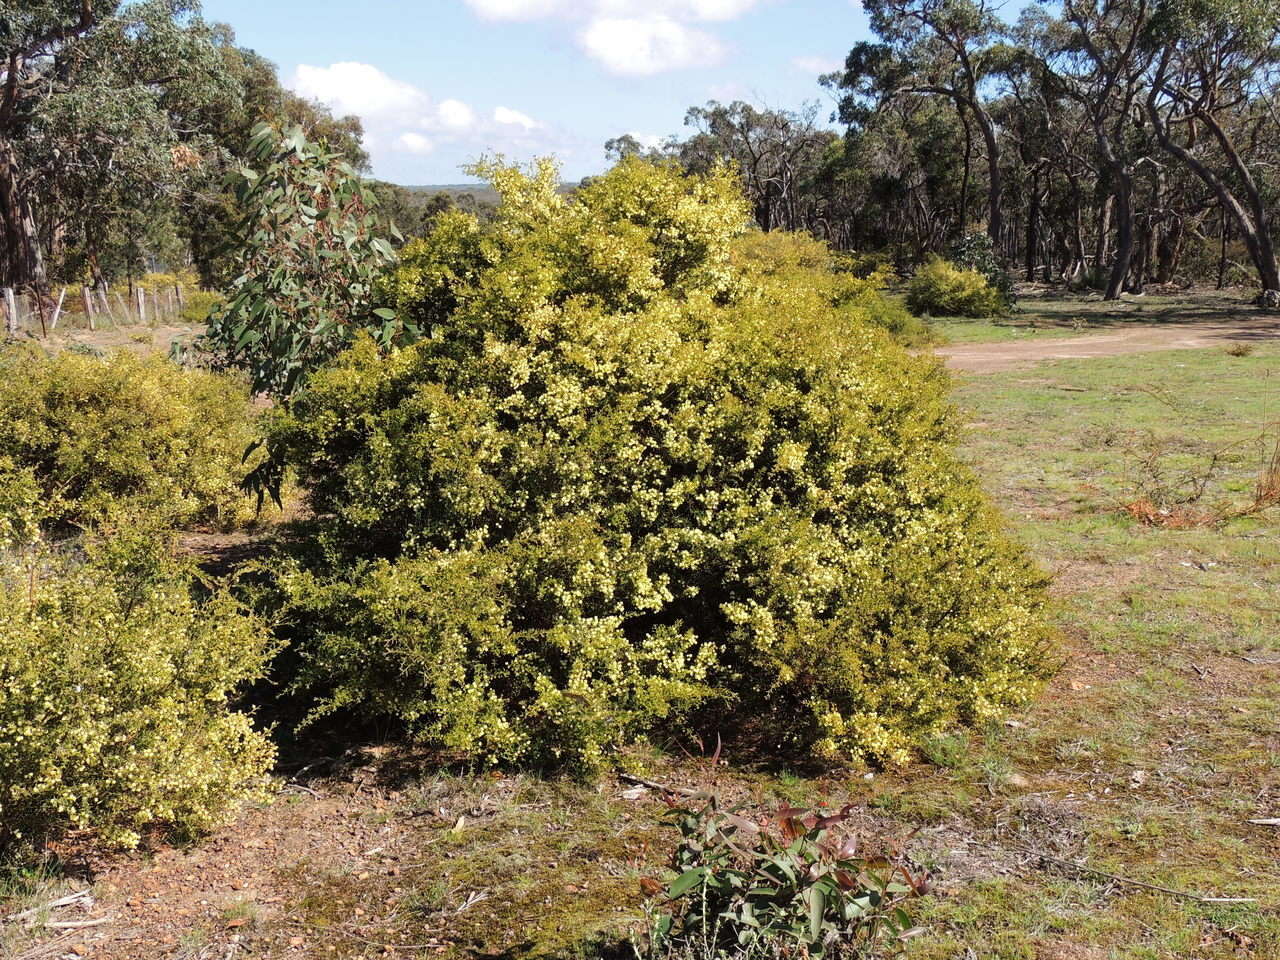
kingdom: Plantae
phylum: Tracheophyta
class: Magnoliopsida
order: Fabales
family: Fabaceae
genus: Acacia
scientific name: Acacia aspera
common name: Rough wattle
